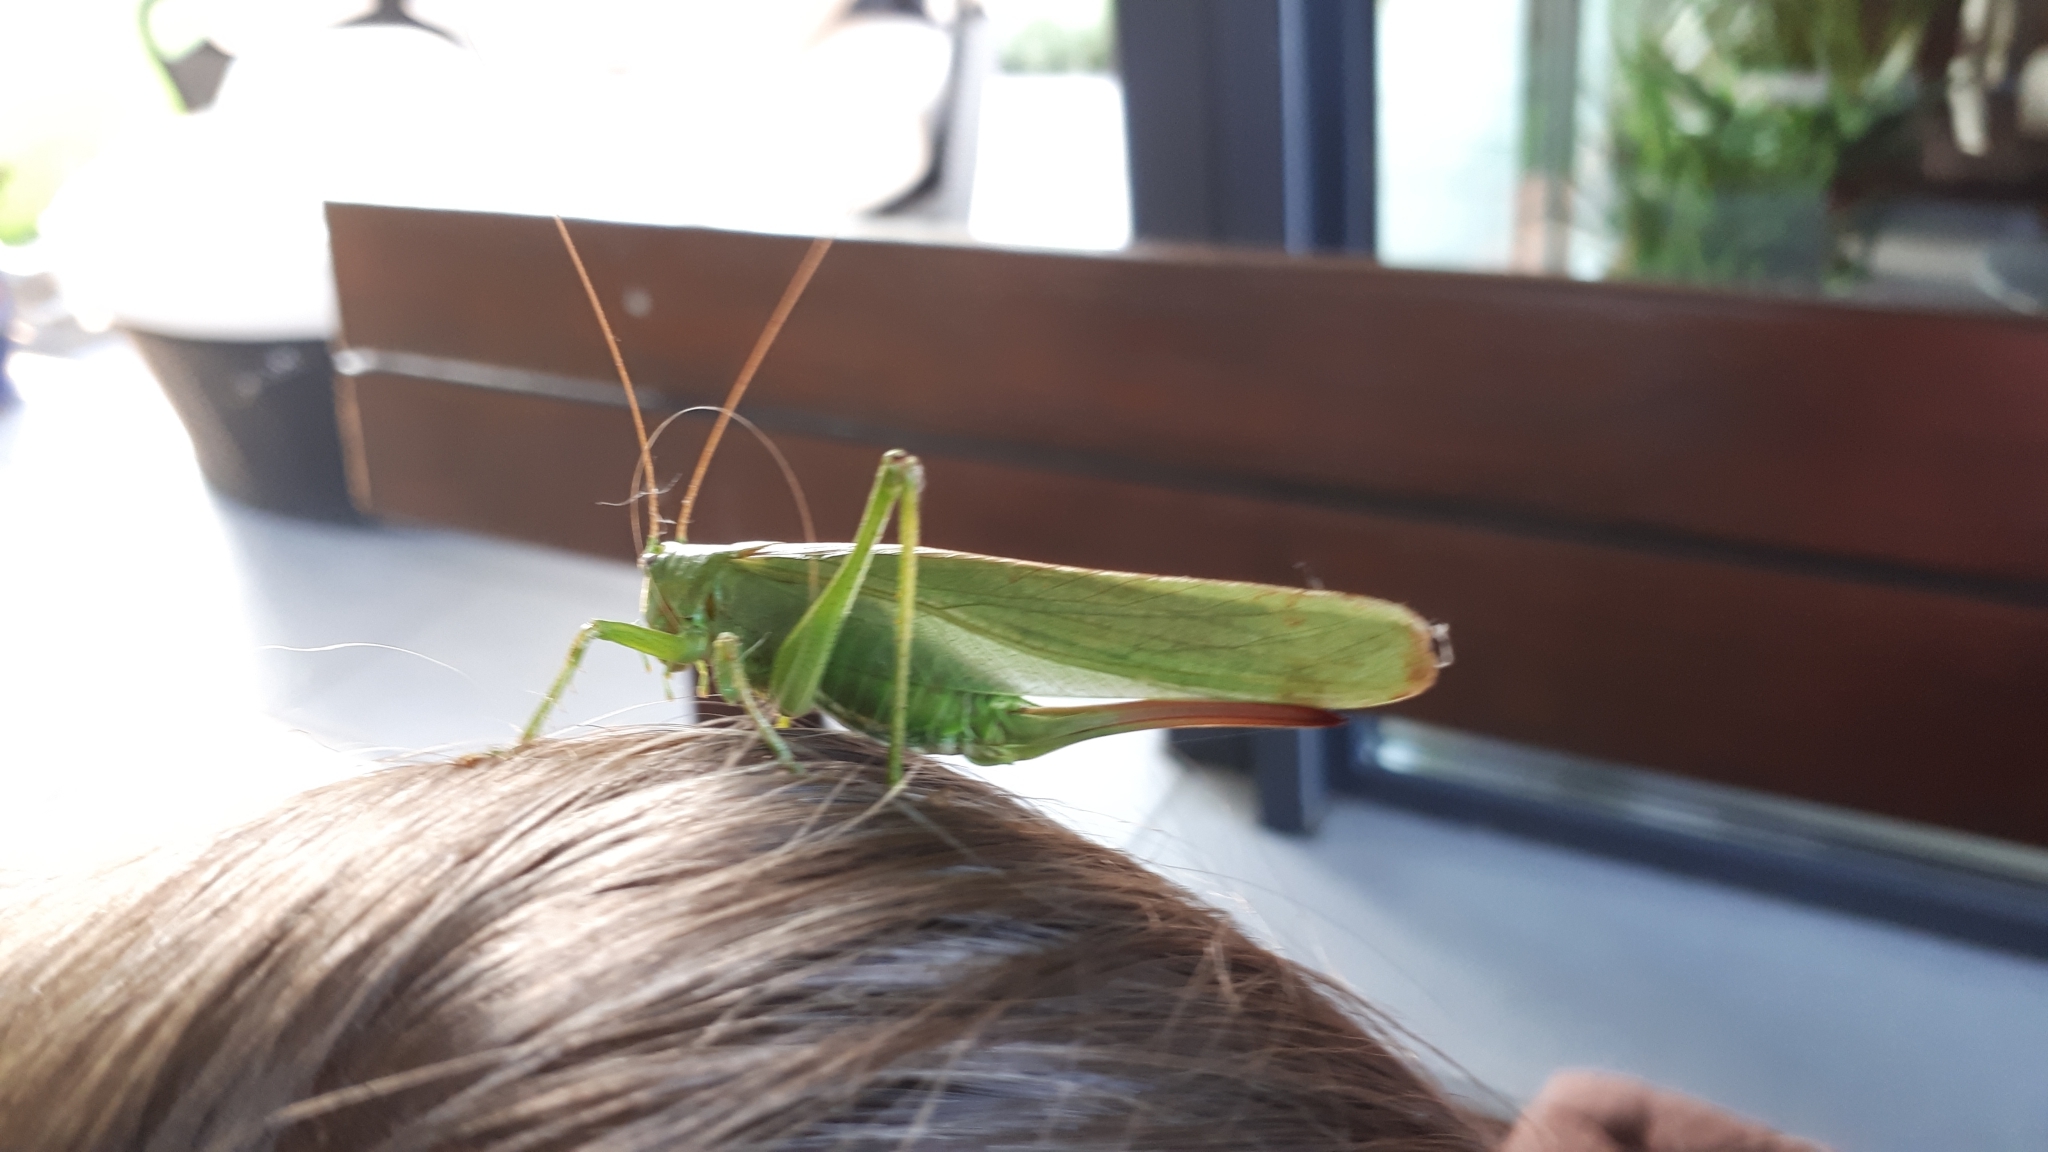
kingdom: Animalia
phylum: Arthropoda
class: Insecta
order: Orthoptera
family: Tettigoniidae
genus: Tettigonia
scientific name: Tettigonia viridissima
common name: Great green bush-cricket
